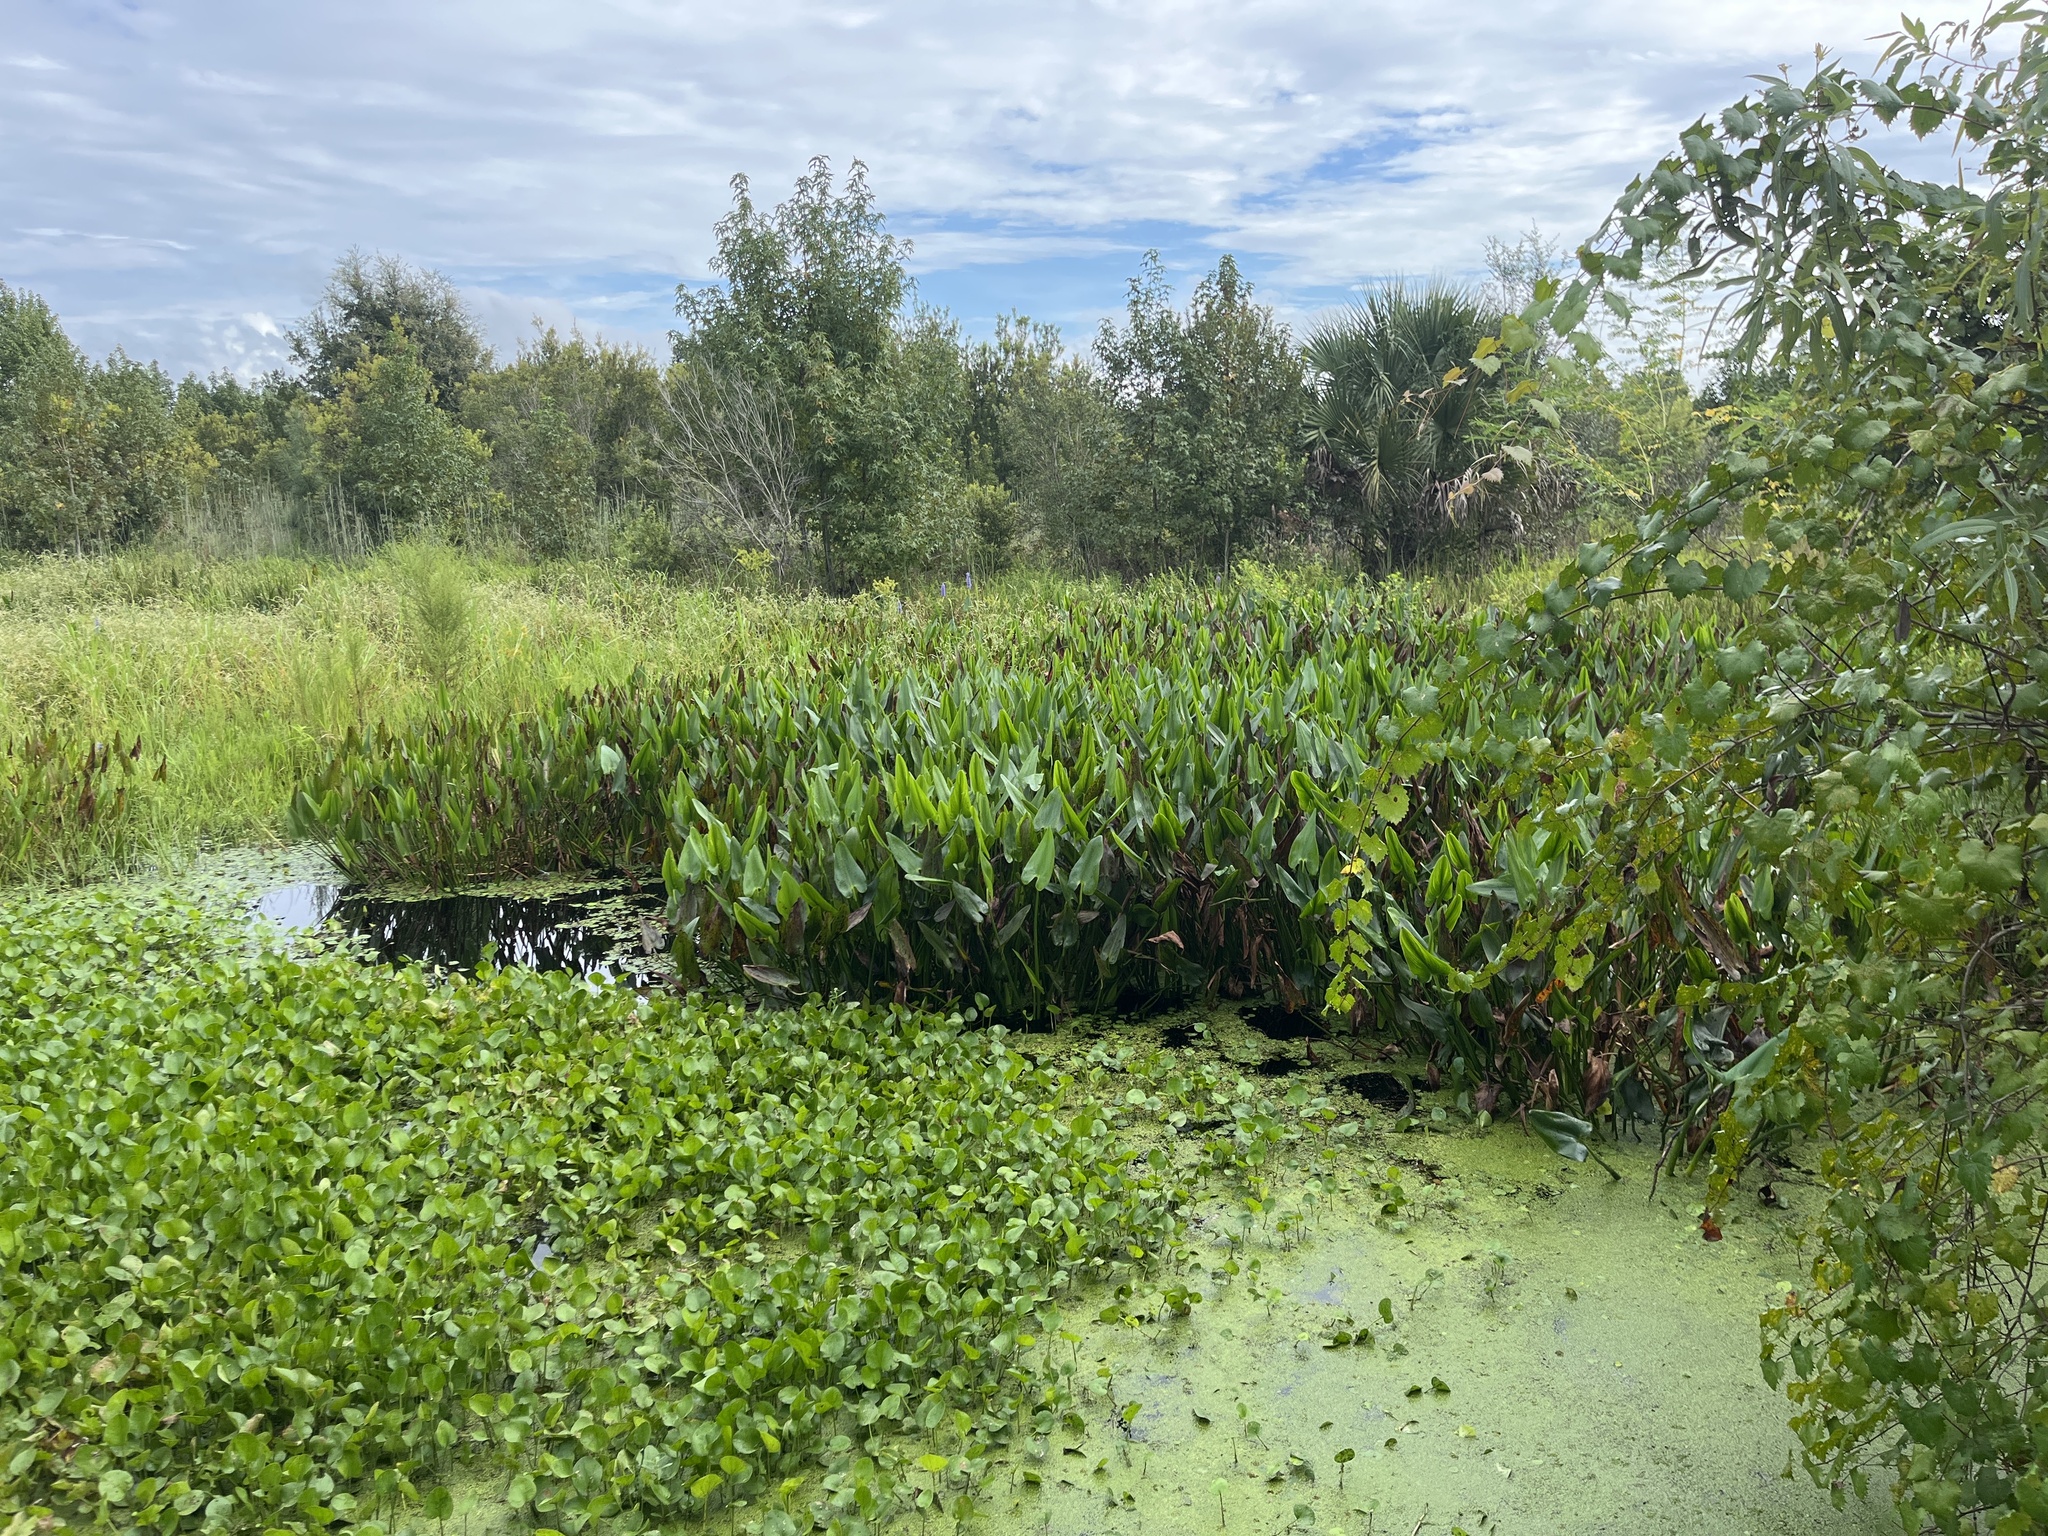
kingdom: Plantae
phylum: Tracheophyta
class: Liliopsida
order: Commelinales
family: Pontederiaceae
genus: Pontederia
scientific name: Pontederia cordata
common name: Pickerelweed
